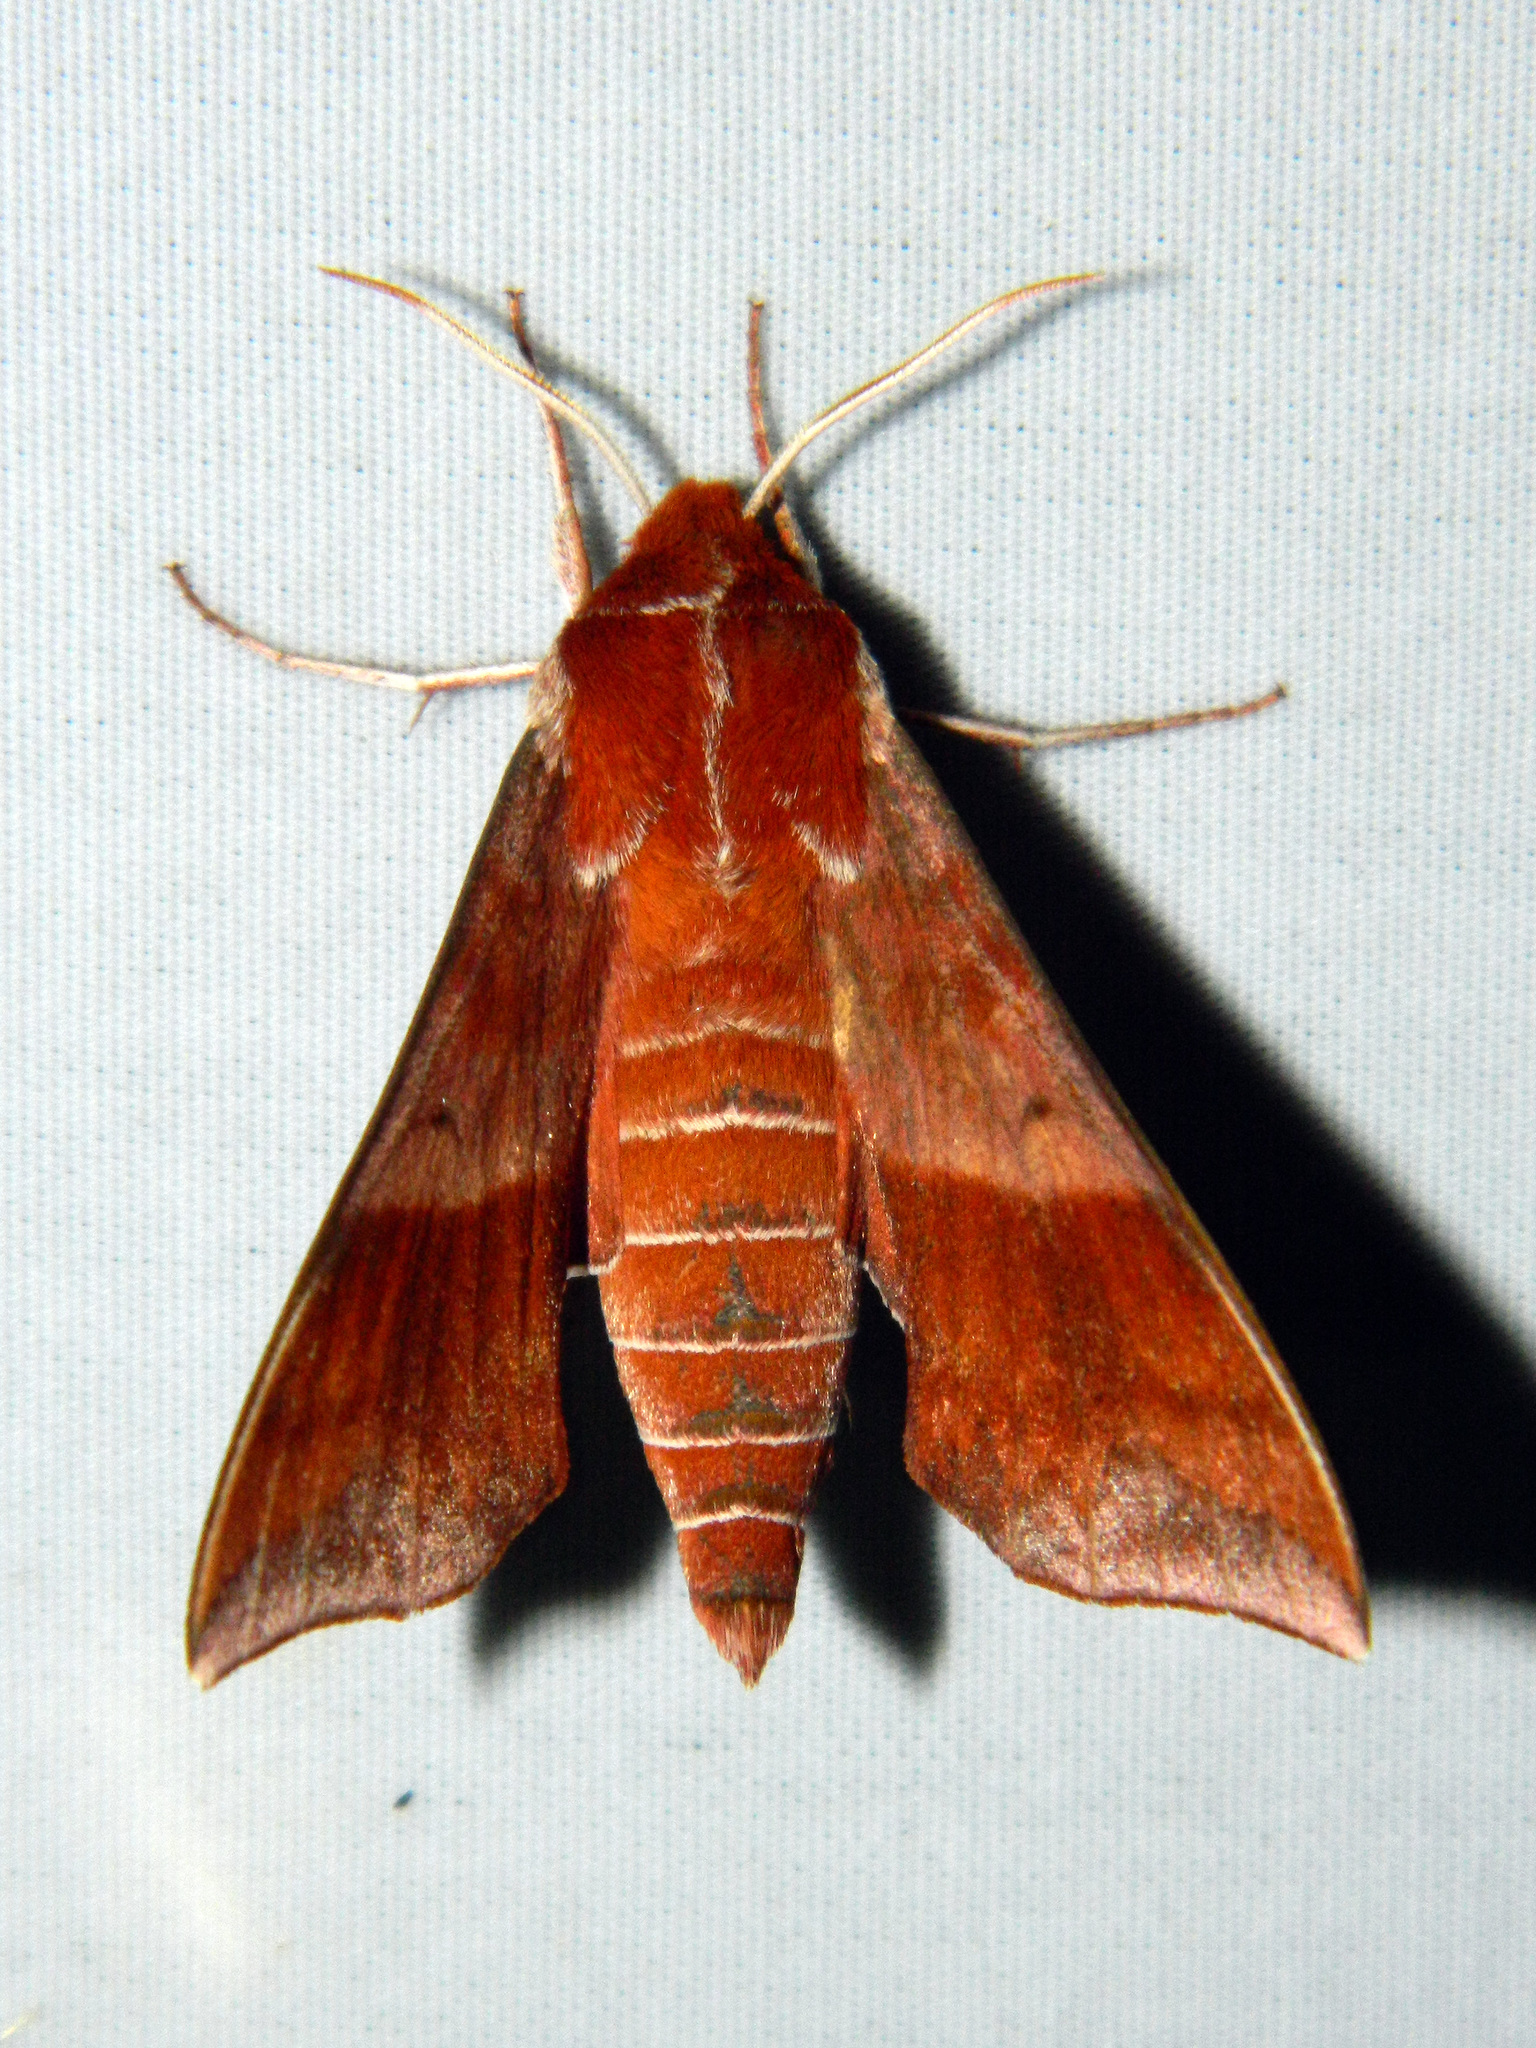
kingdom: Animalia
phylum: Arthropoda
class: Insecta
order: Lepidoptera
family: Sphingidae
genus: Darapsa
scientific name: Darapsa choerilus
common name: Azalea sphinx
